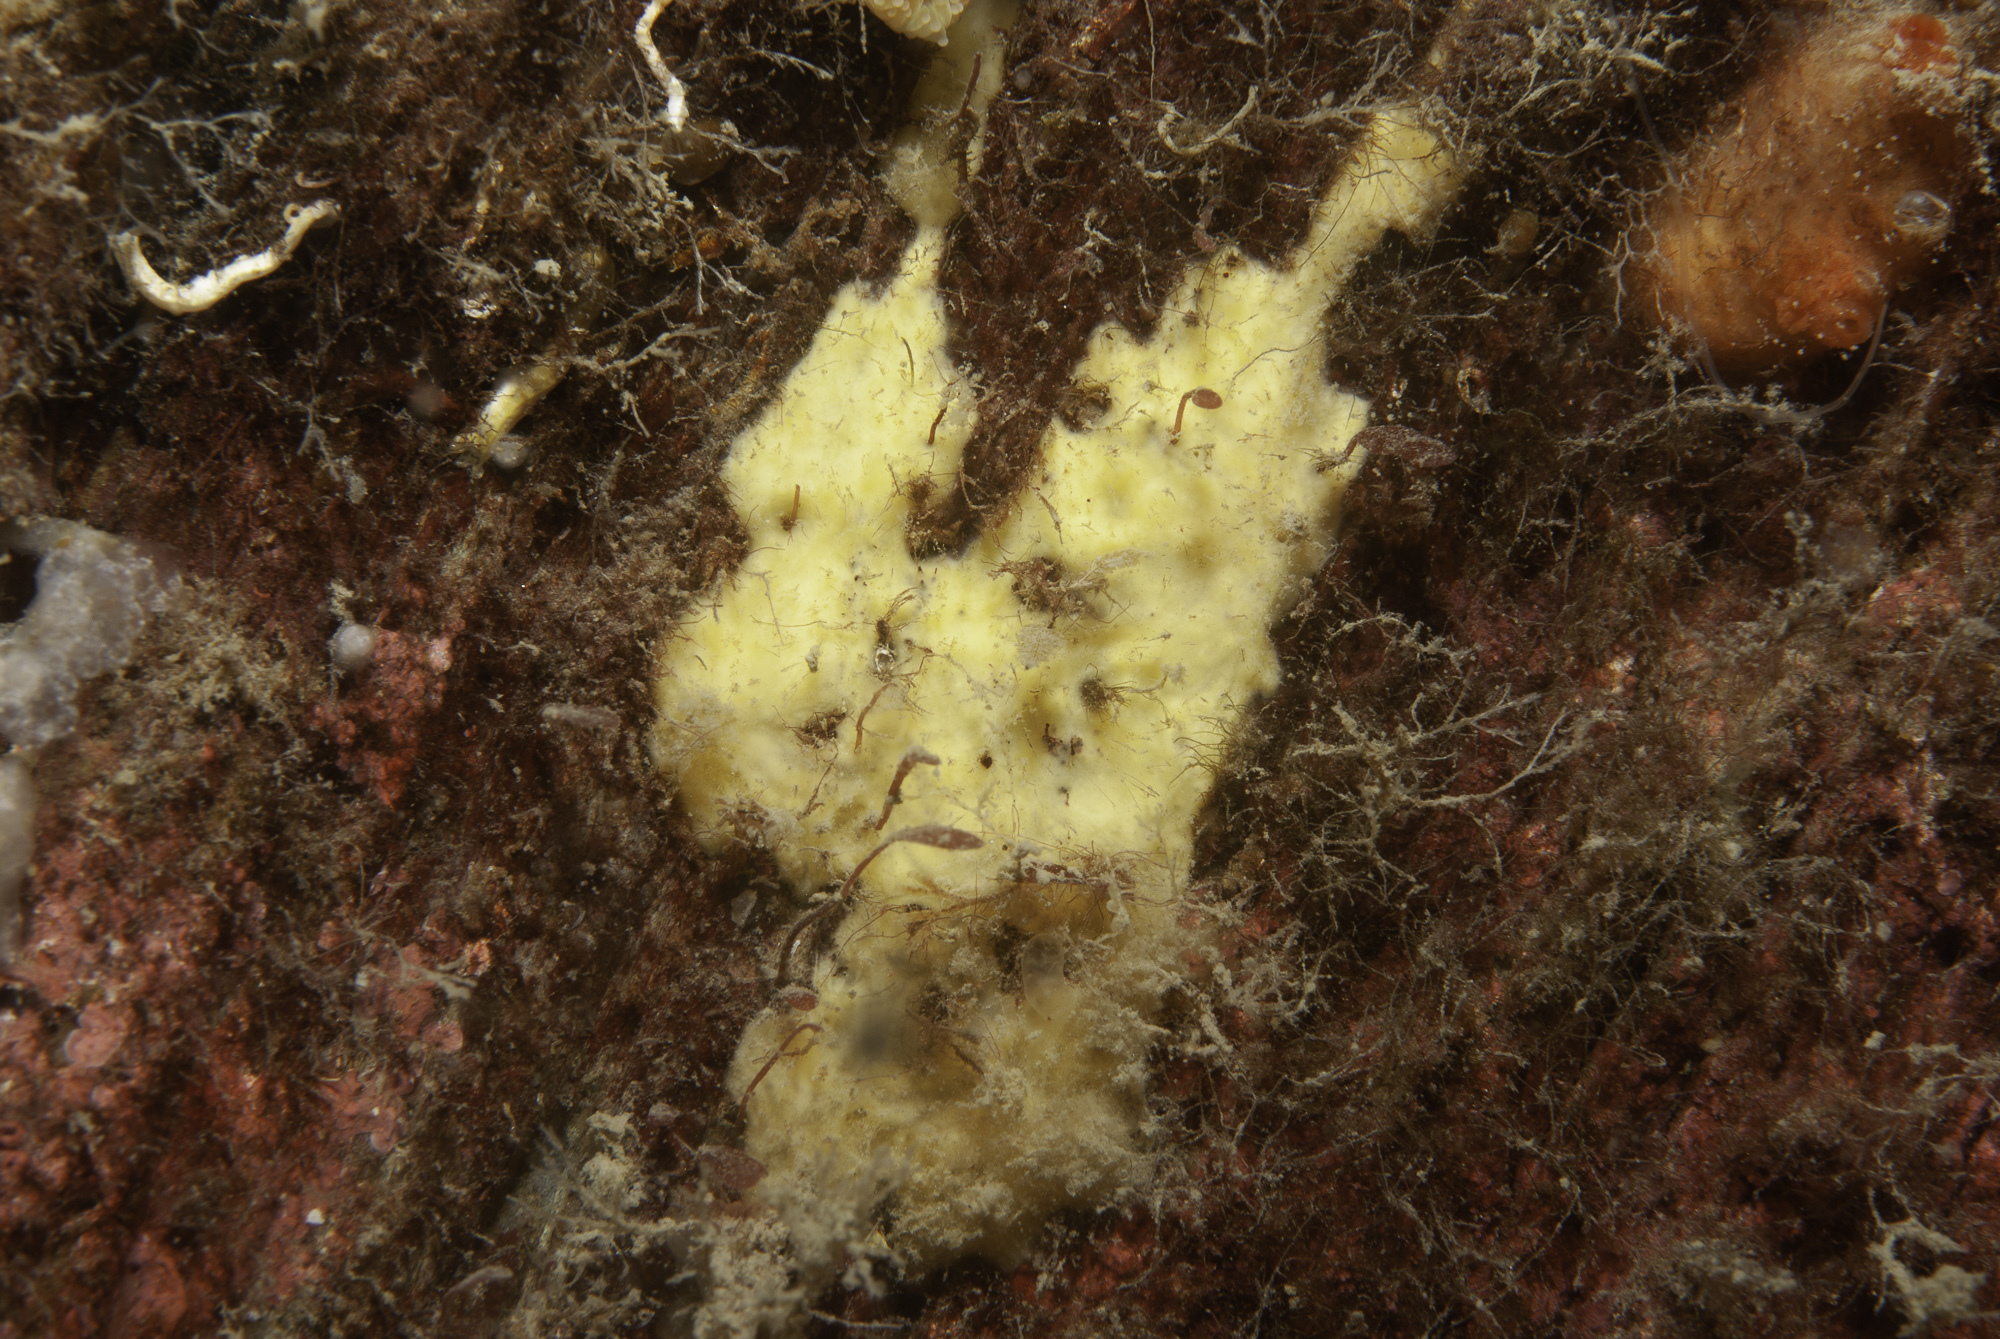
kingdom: Animalia
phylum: Porifera
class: Demospongiae
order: Axinellida
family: Stelligeridae
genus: Paratimea
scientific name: Paratimea loennbergi
